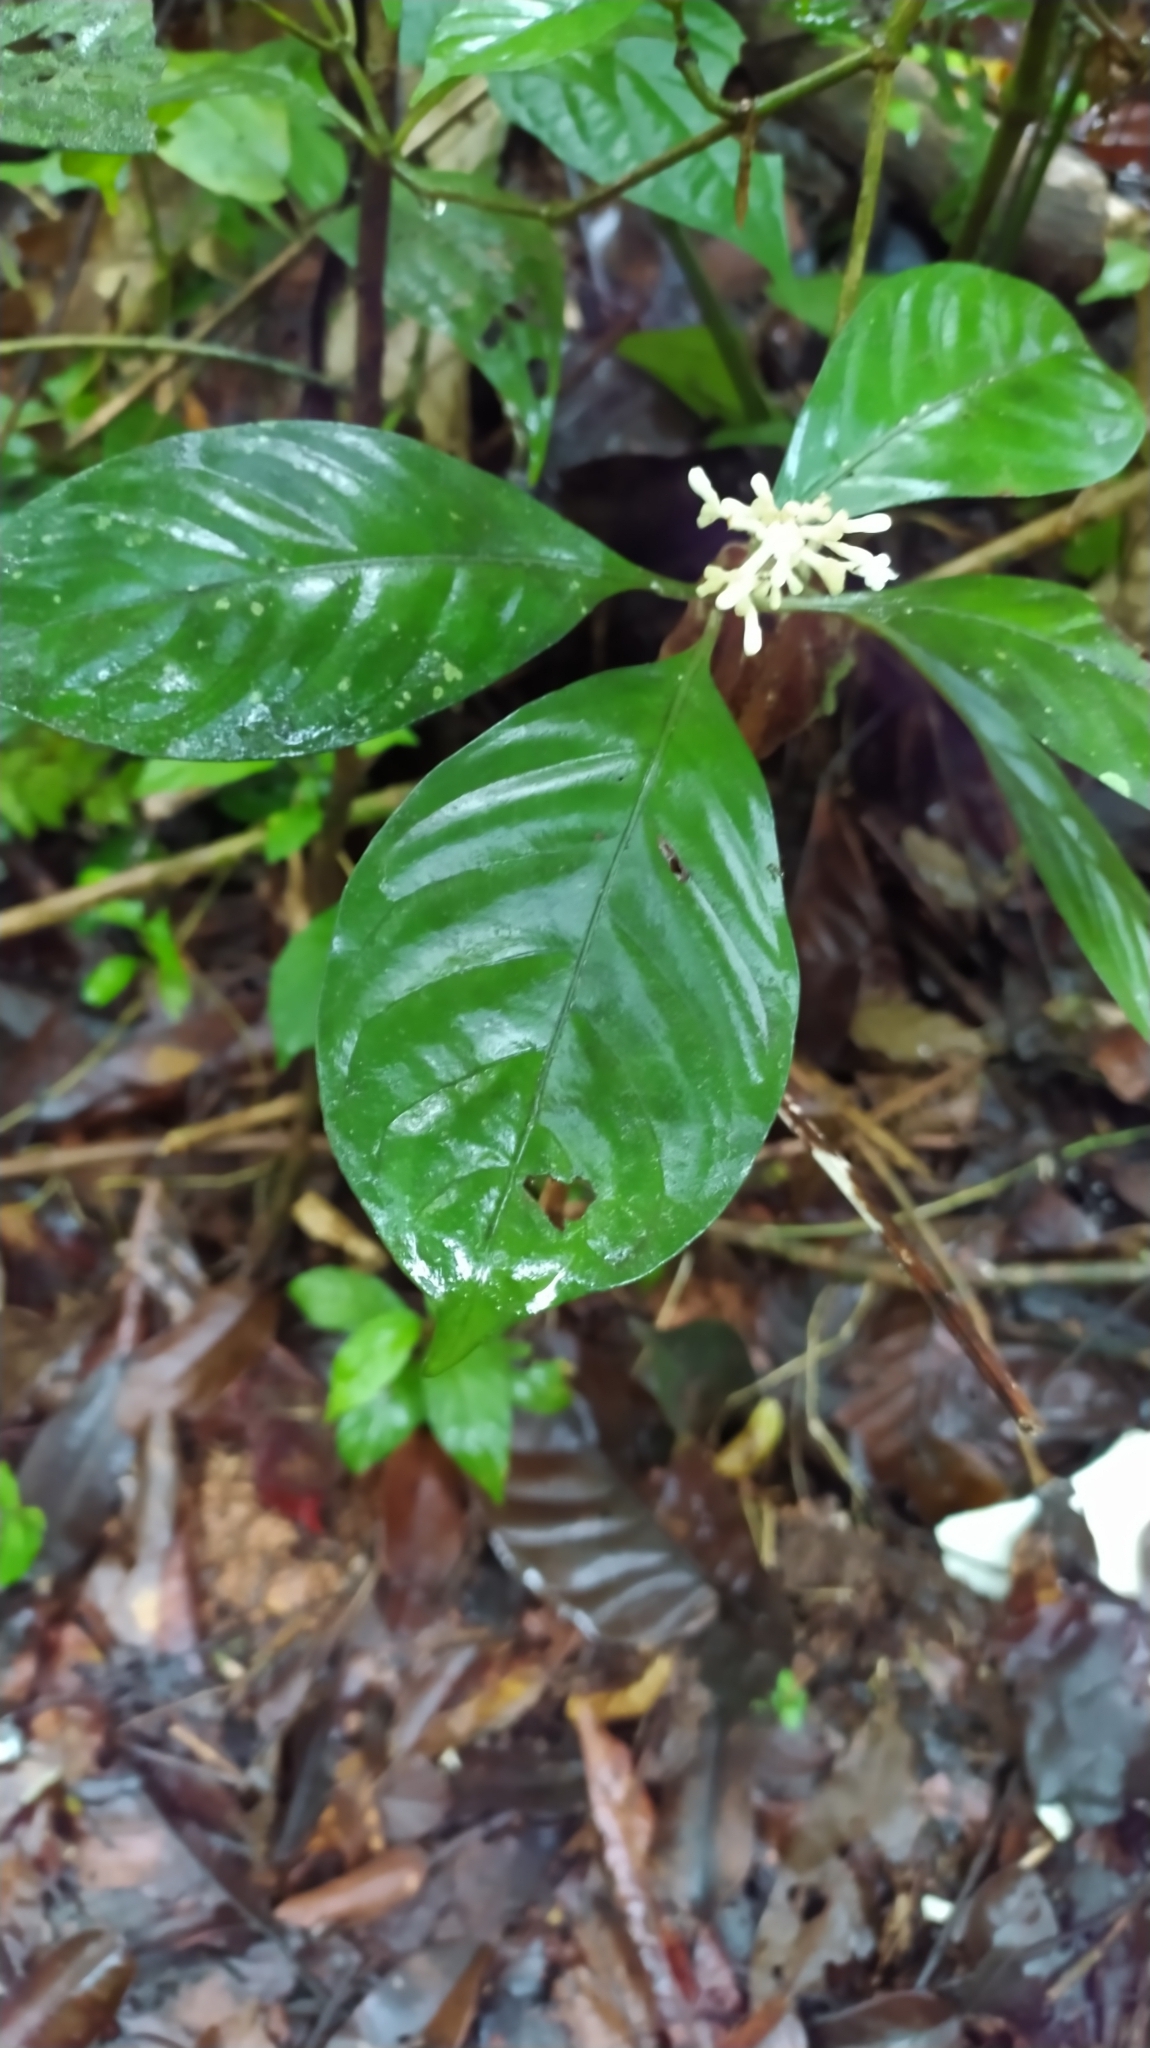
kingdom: Plantae
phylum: Tracheophyta
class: Magnoliopsida
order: Gentianales
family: Rubiaceae
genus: Psychotria
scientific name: Psychotria cupularis
